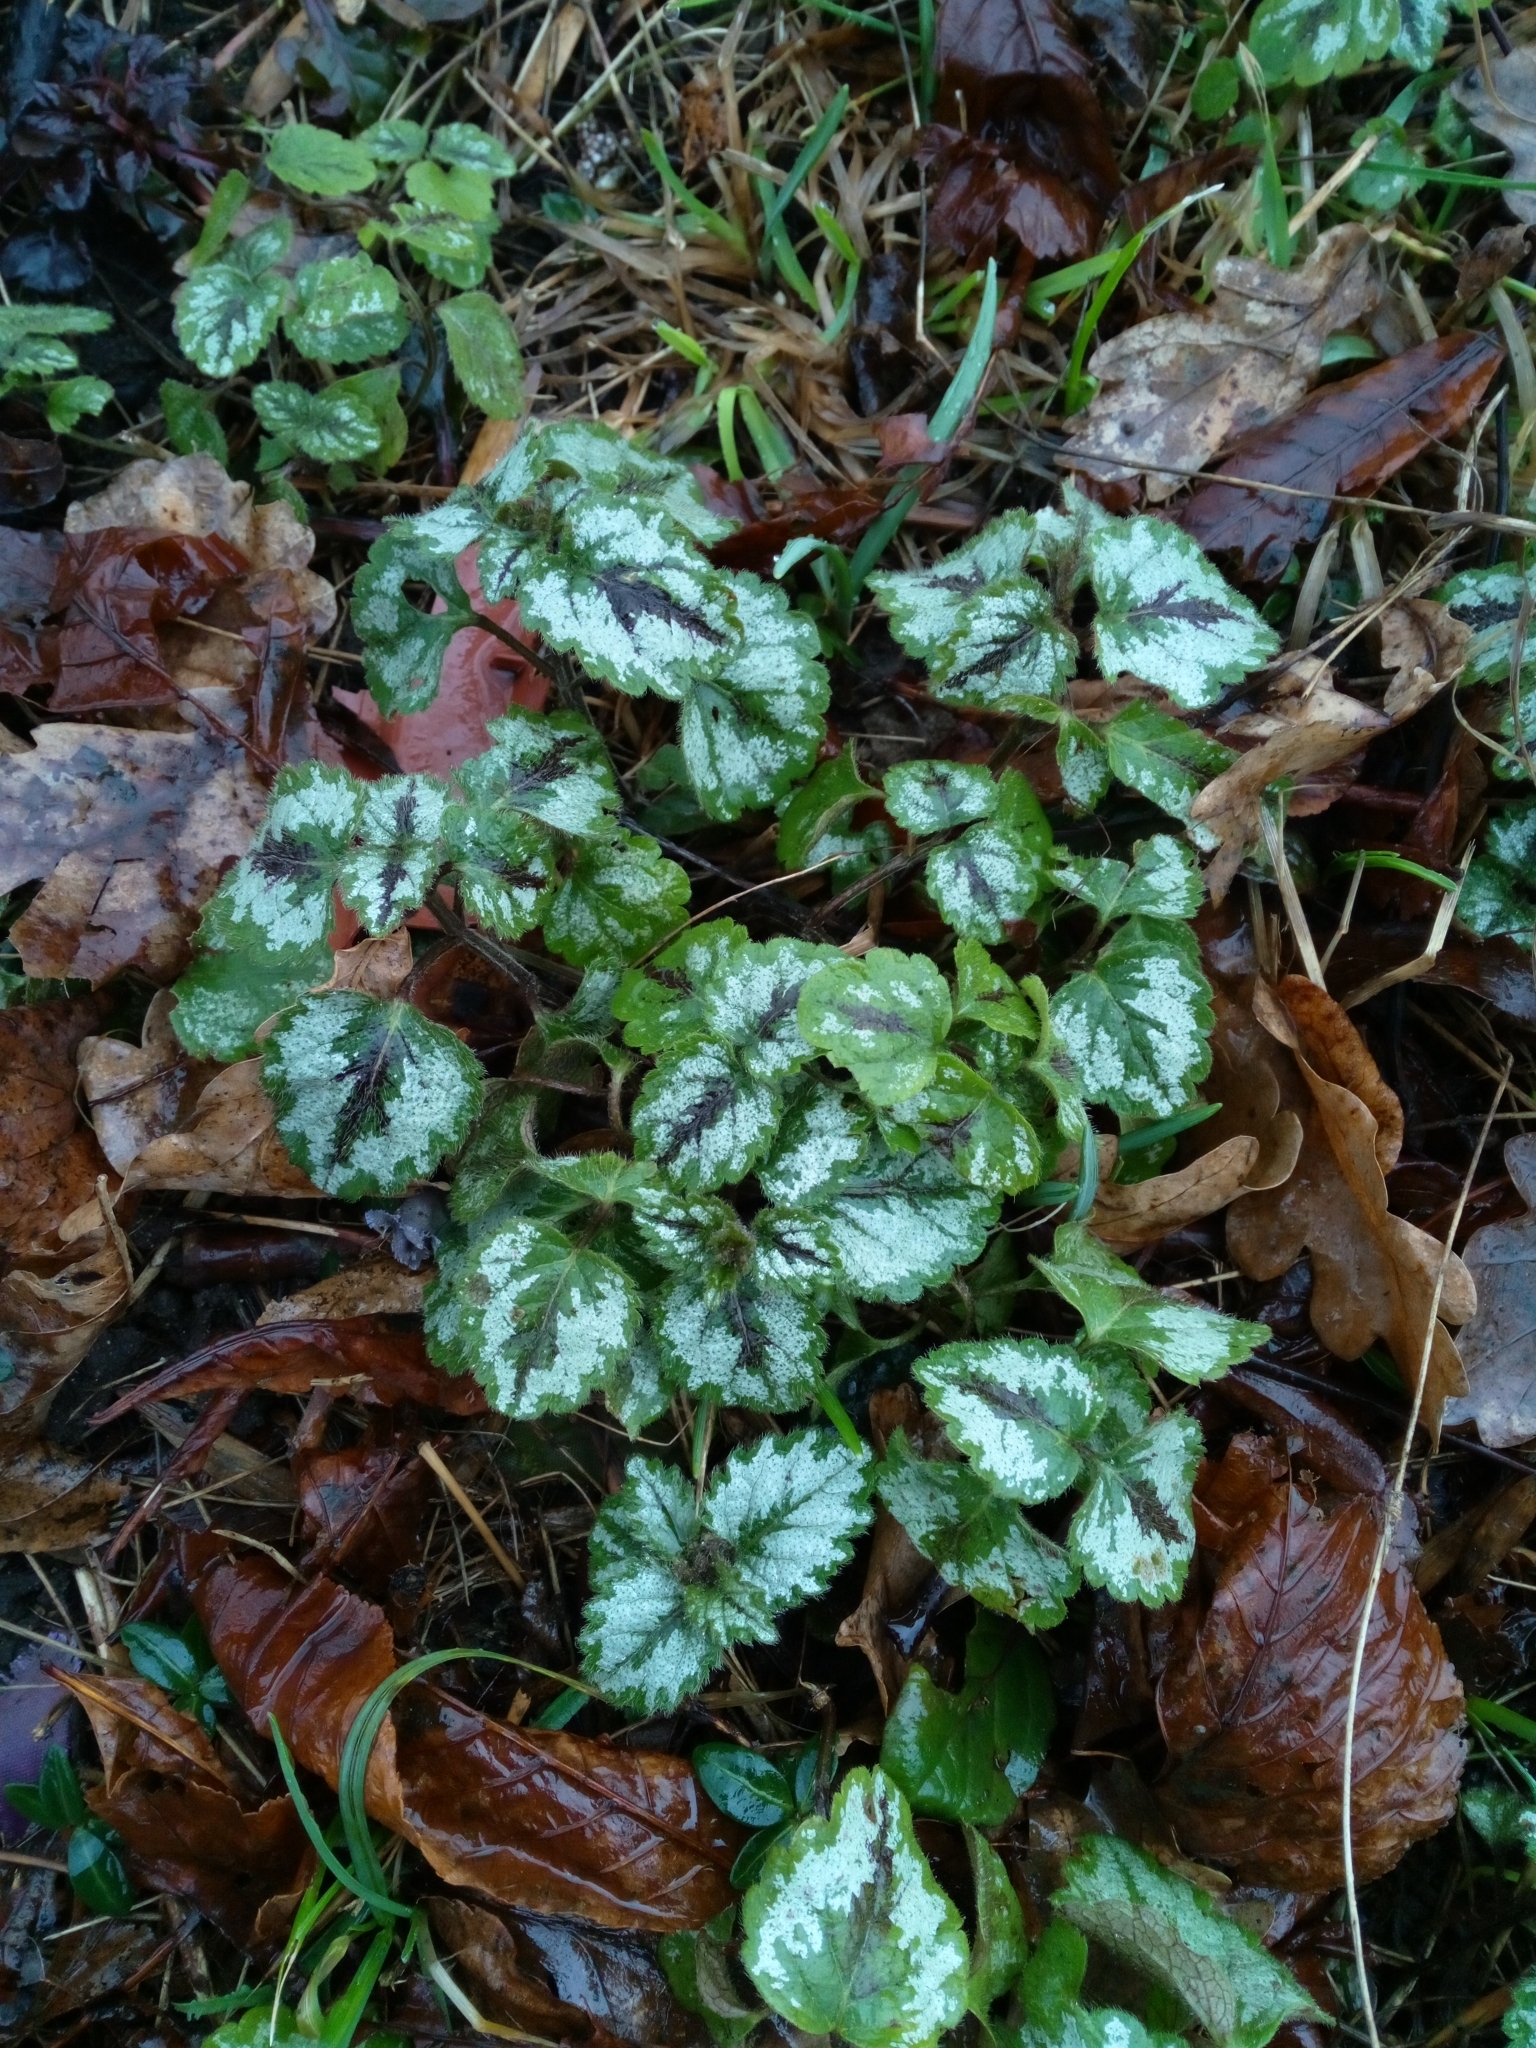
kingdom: Plantae
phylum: Tracheophyta
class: Magnoliopsida
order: Lamiales
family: Lamiaceae
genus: Lamium
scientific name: Lamium galeobdolon
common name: Yellow archangel
